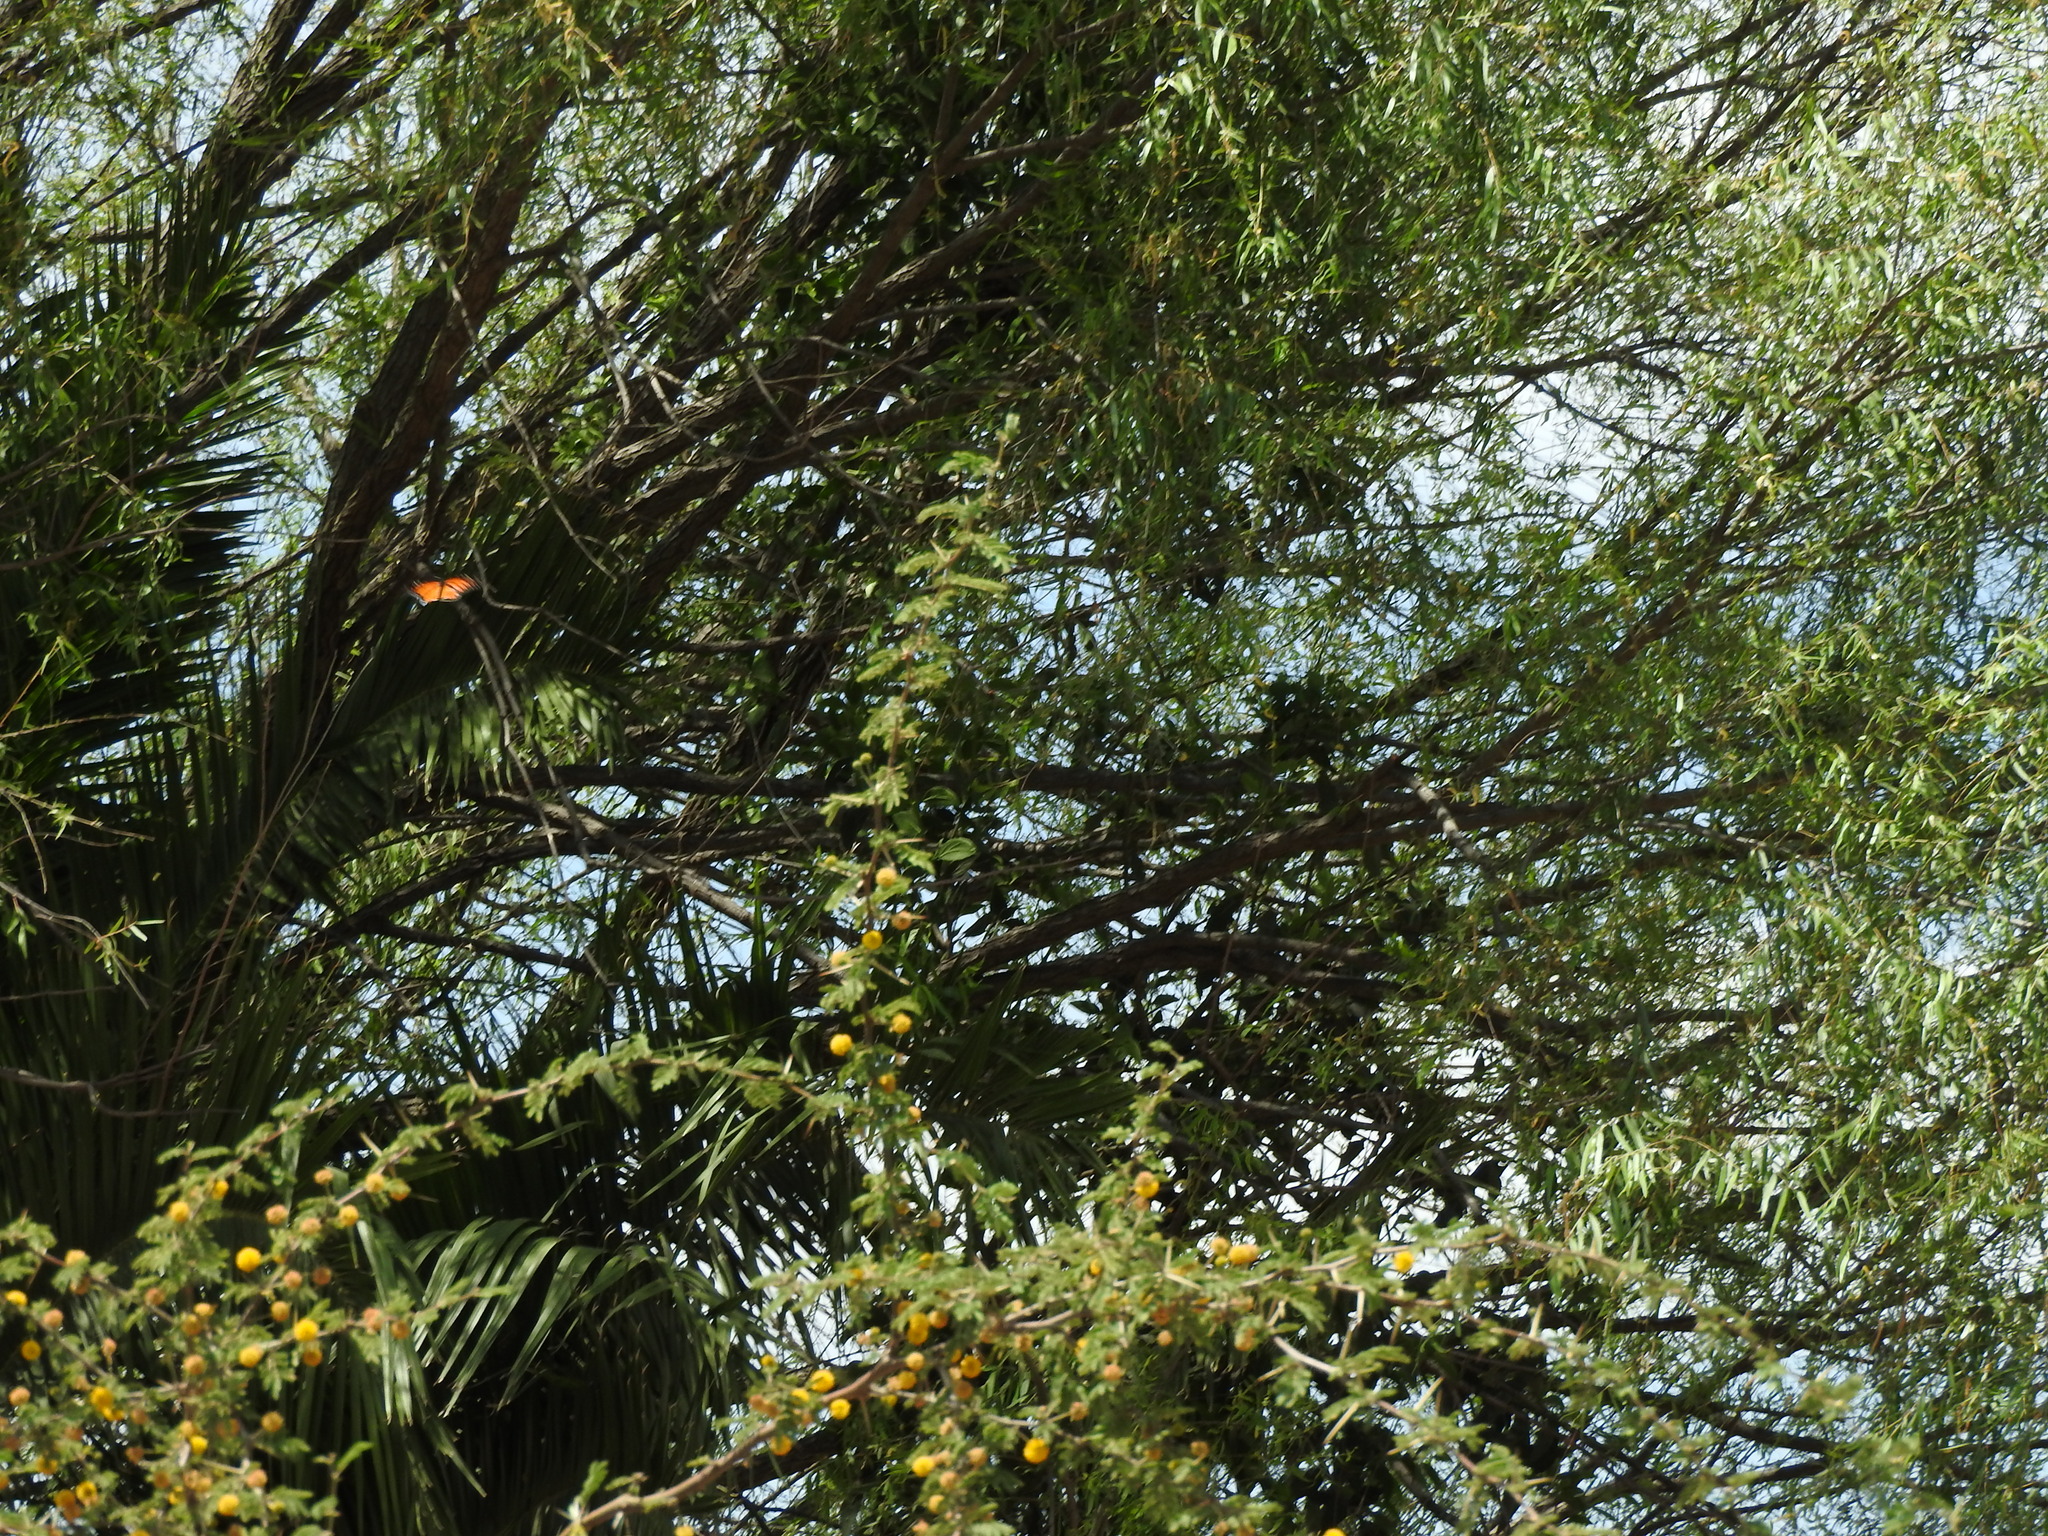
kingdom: Animalia
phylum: Arthropoda
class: Insecta
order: Lepidoptera
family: Nymphalidae
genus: Danaus
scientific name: Danaus plexippus
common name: Monarch
